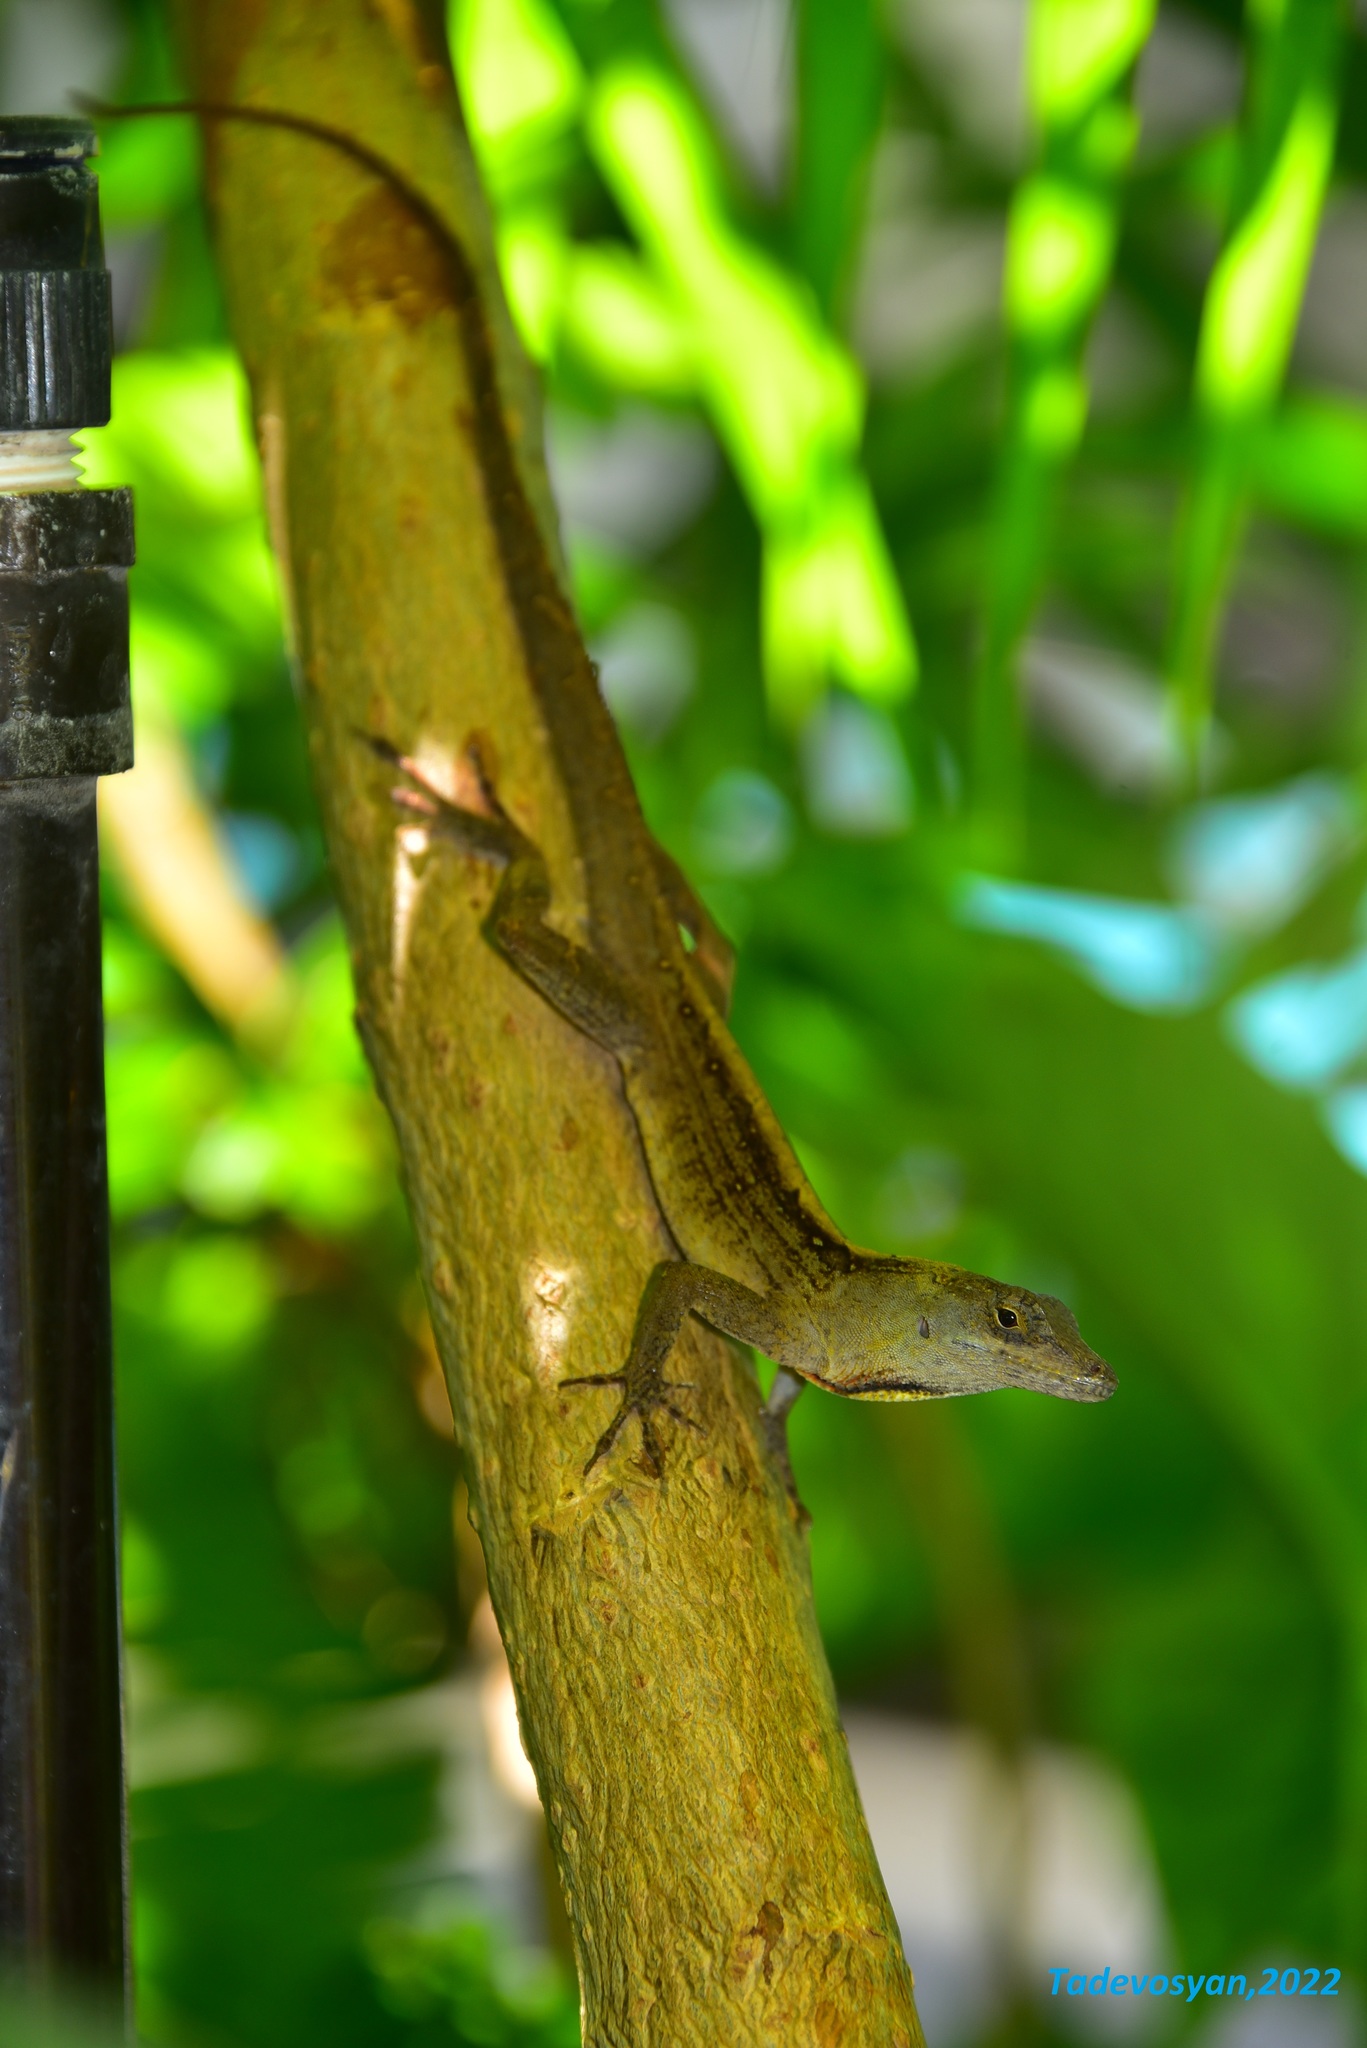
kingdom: Animalia
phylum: Chordata
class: Squamata
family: Dactyloidae
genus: Anolis
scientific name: Anolis sagrei
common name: Brown anole
